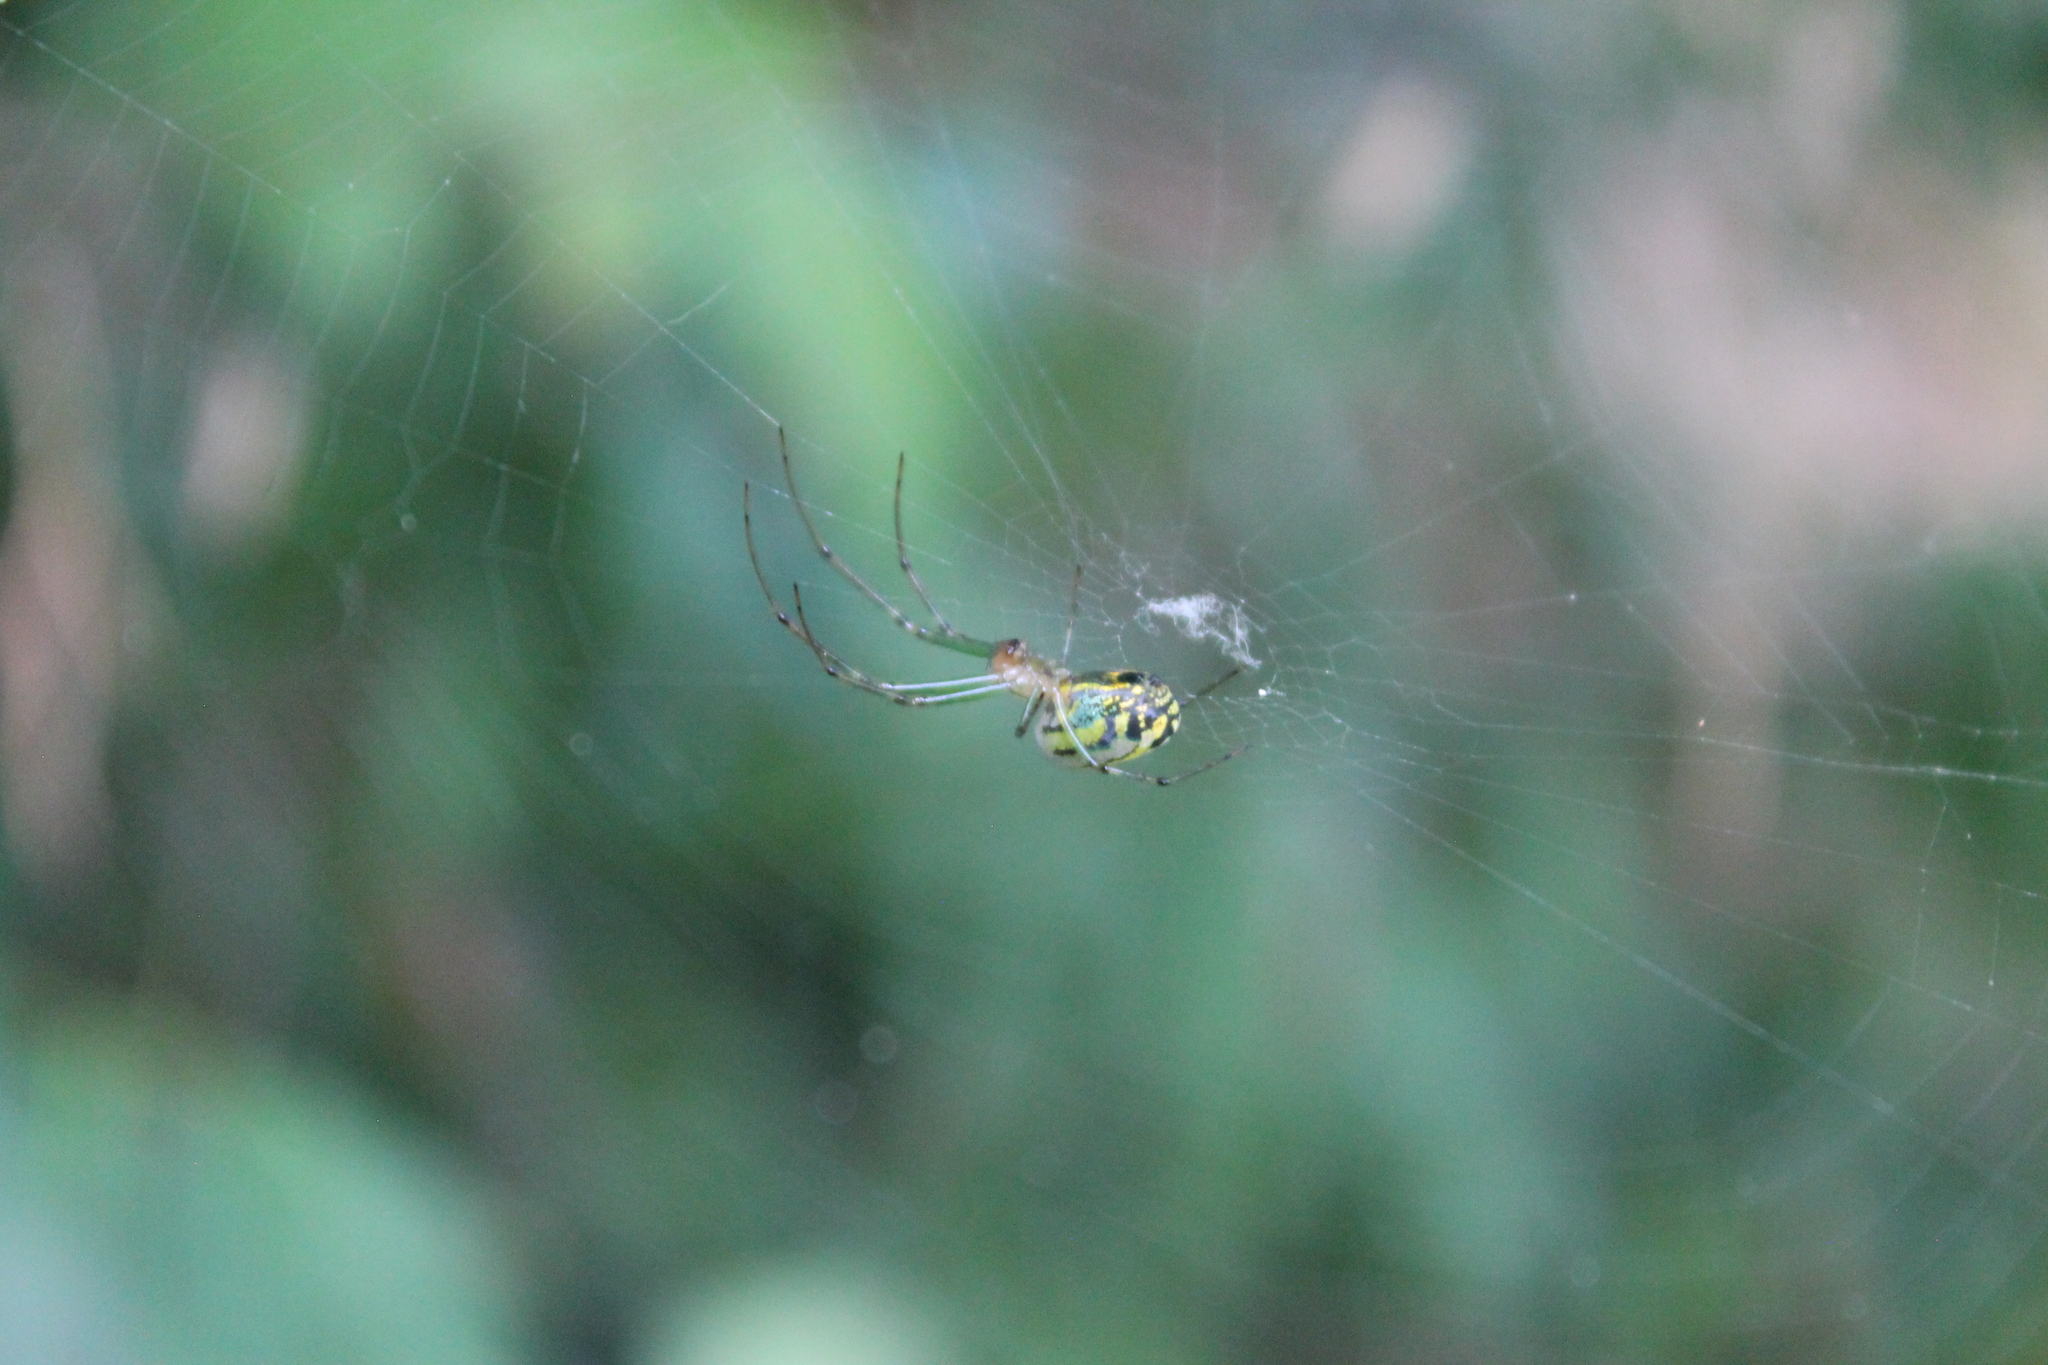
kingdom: Animalia
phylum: Arthropoda
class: Arachnida
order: Araneae
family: Tetragnathidae
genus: Leucauge
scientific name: Leucauge venusta
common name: Longjawed orb weavers
